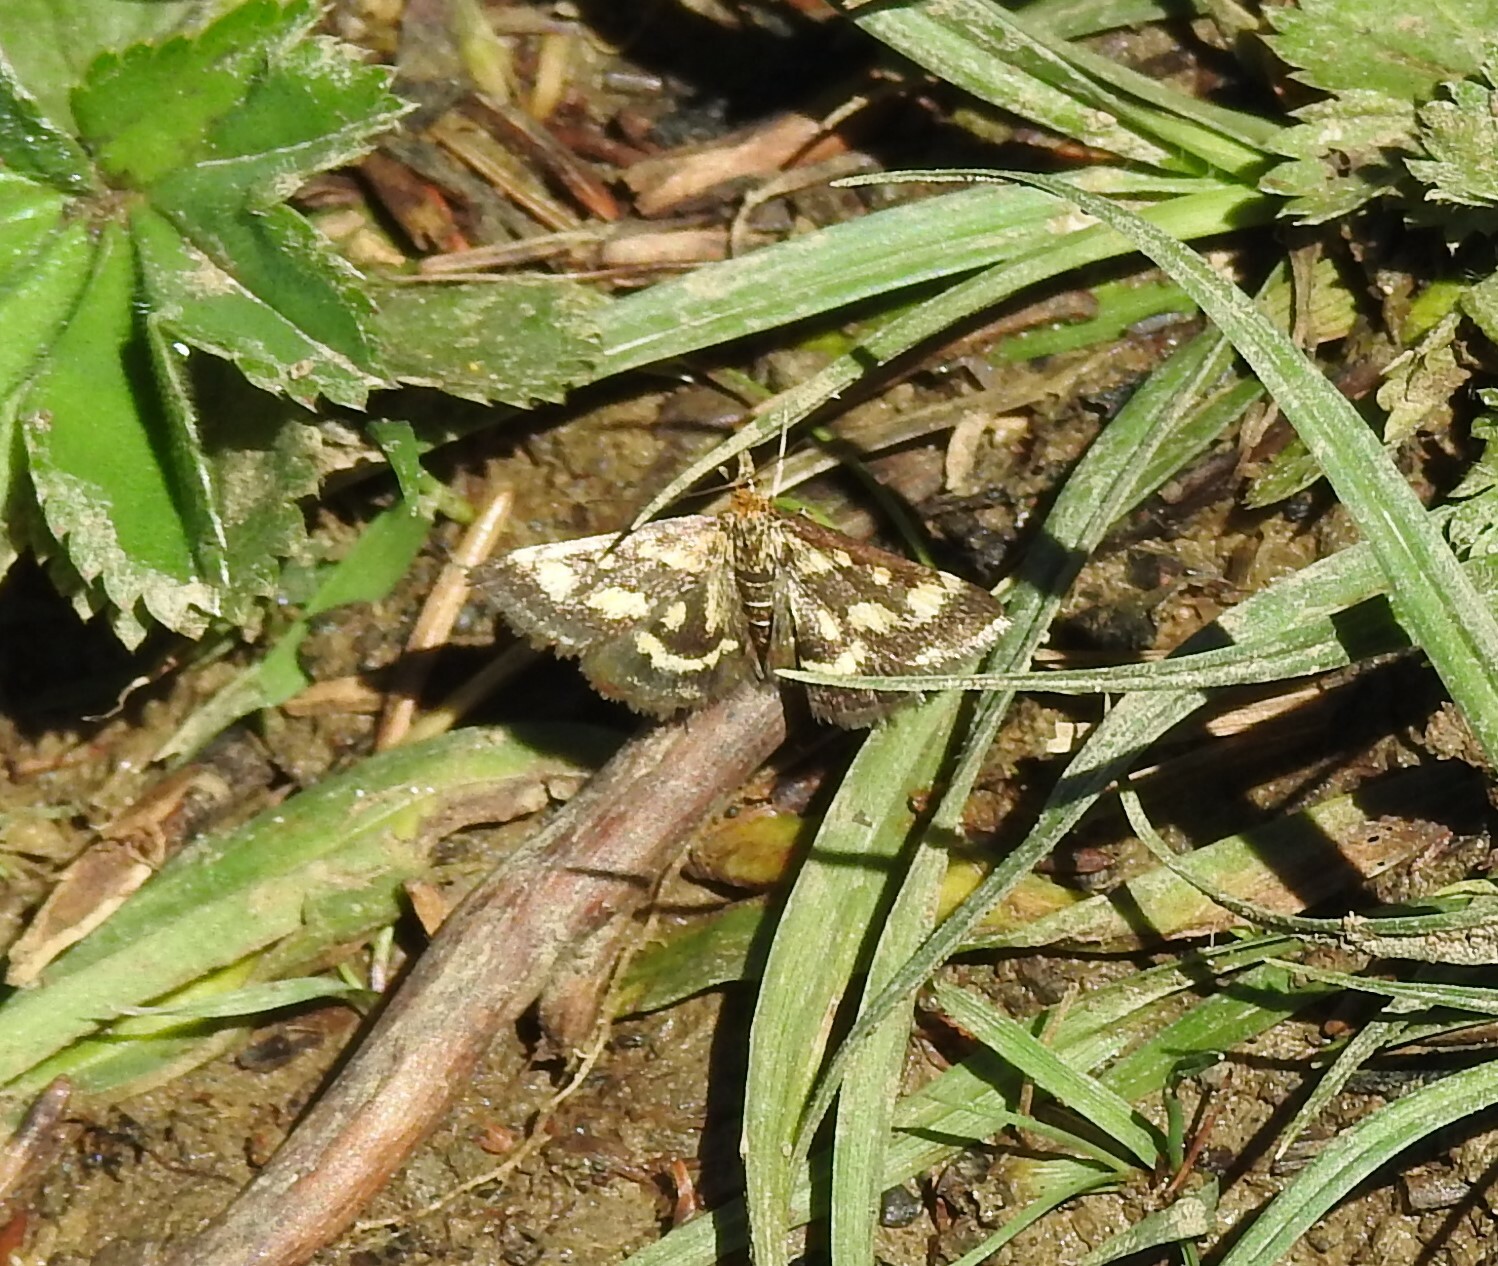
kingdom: Animalia
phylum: Arthropoda
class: Insecta
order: Lepidoptera
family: Crambidae
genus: Pyrausta
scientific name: Pyrausta purpuralis
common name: Common purple & gold
